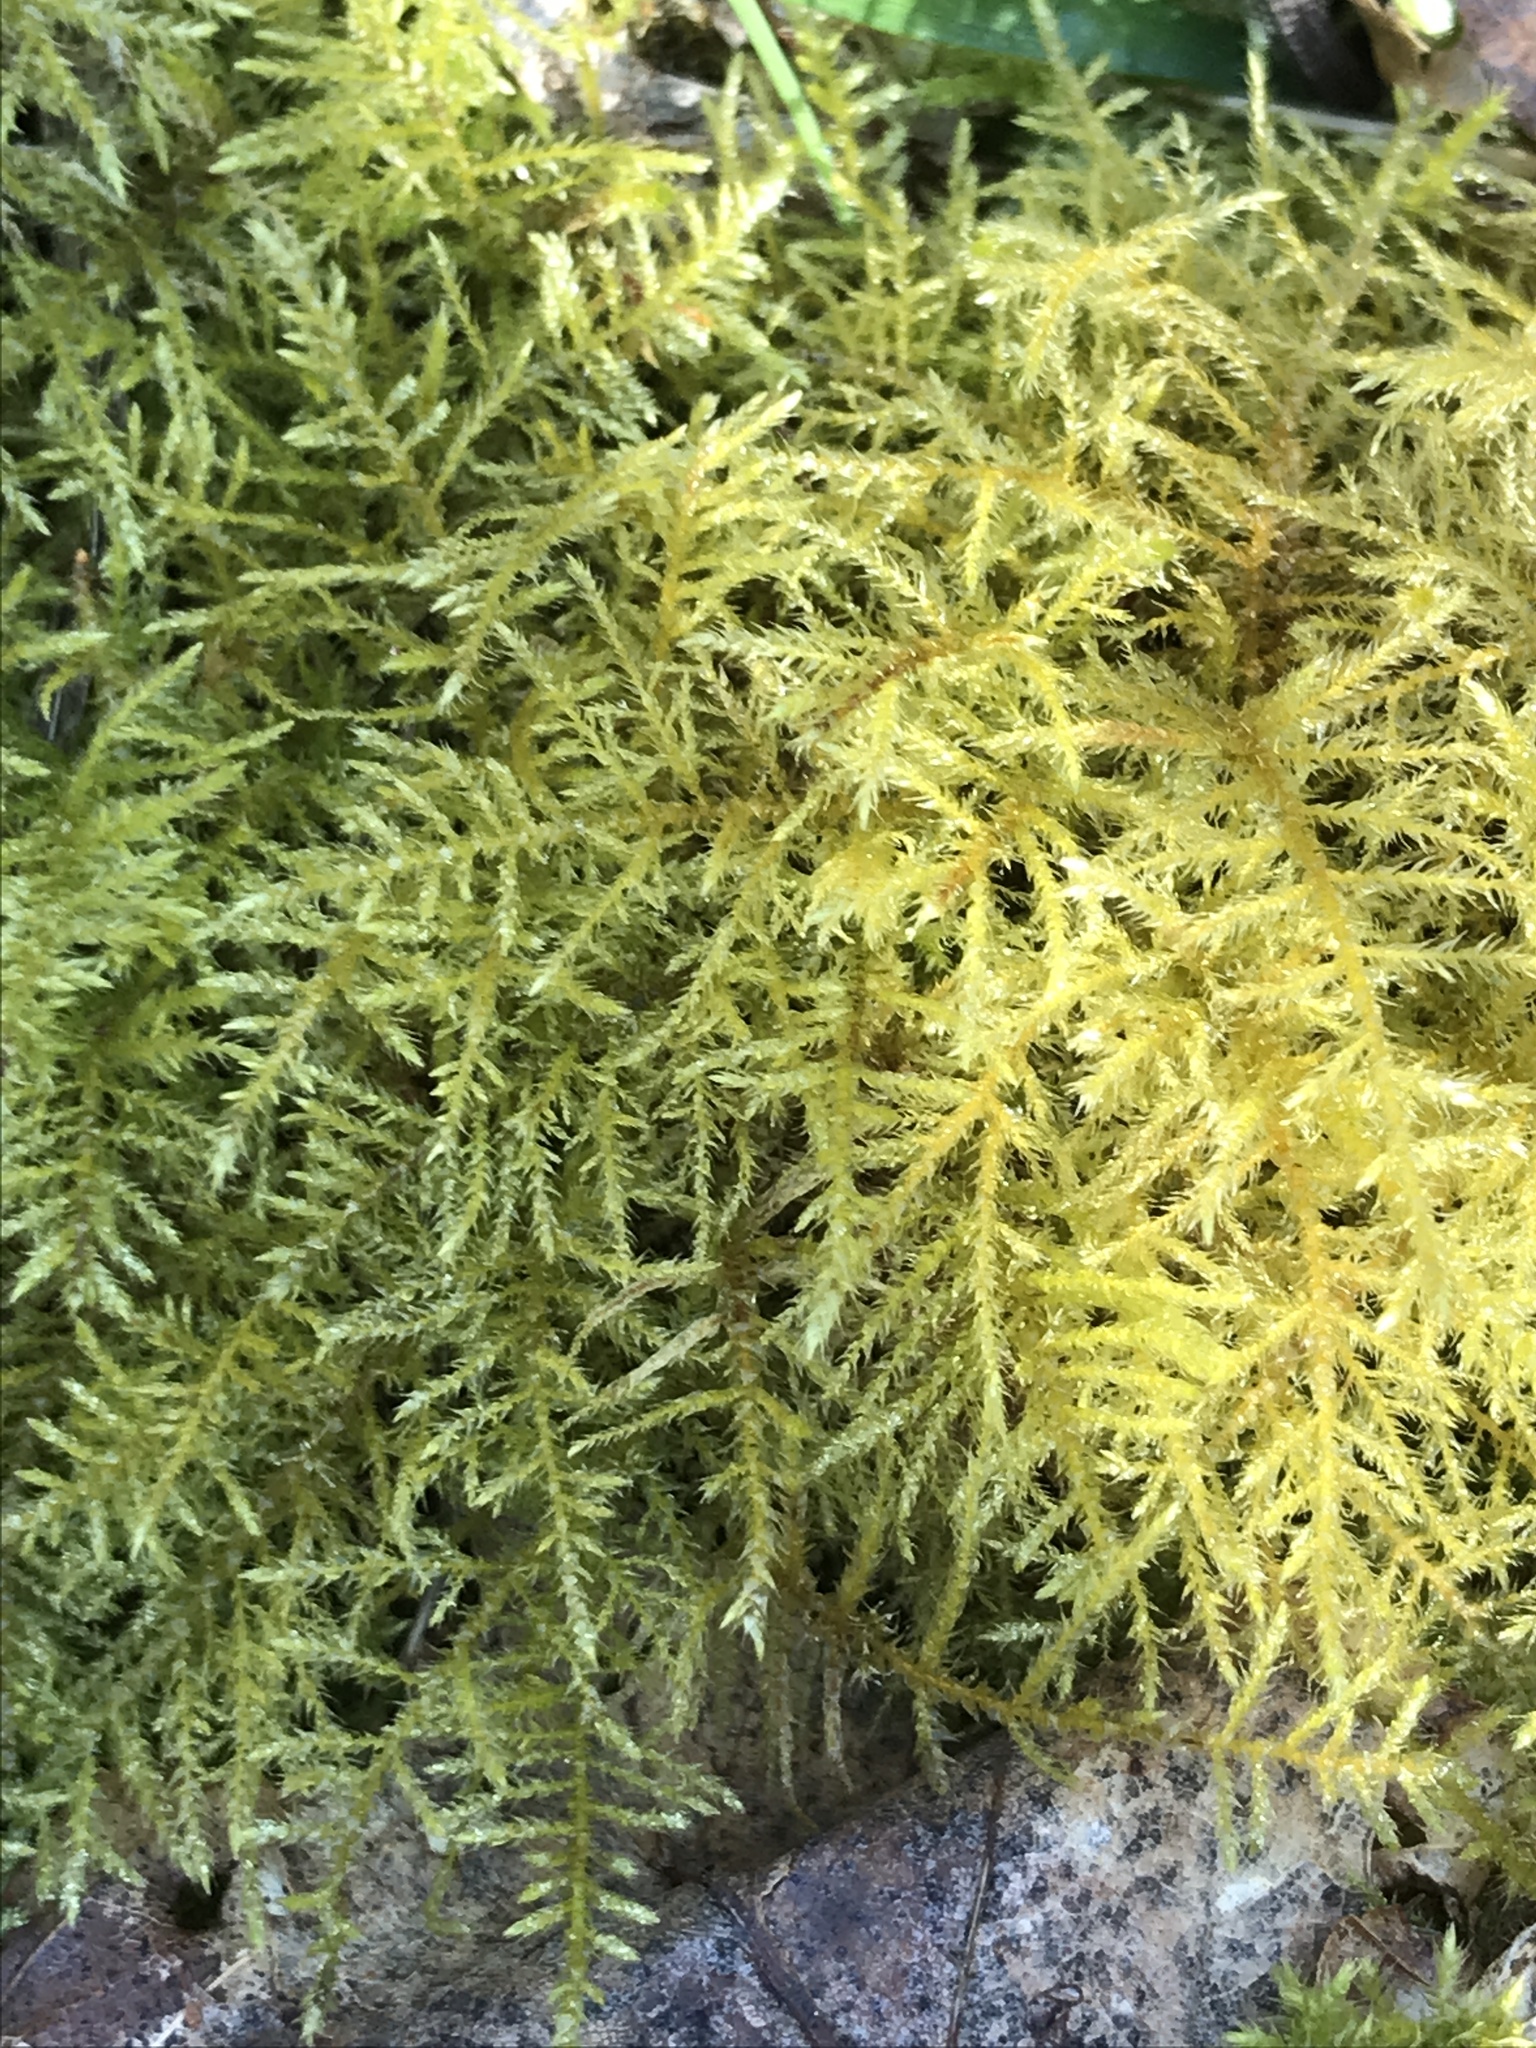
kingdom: Plantae
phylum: Bryophyta
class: Bryopsida
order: Hypnales
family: Brachytheciaceae
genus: Kindbergia
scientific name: Kindbergia praelonga
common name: Slender beaked moss
